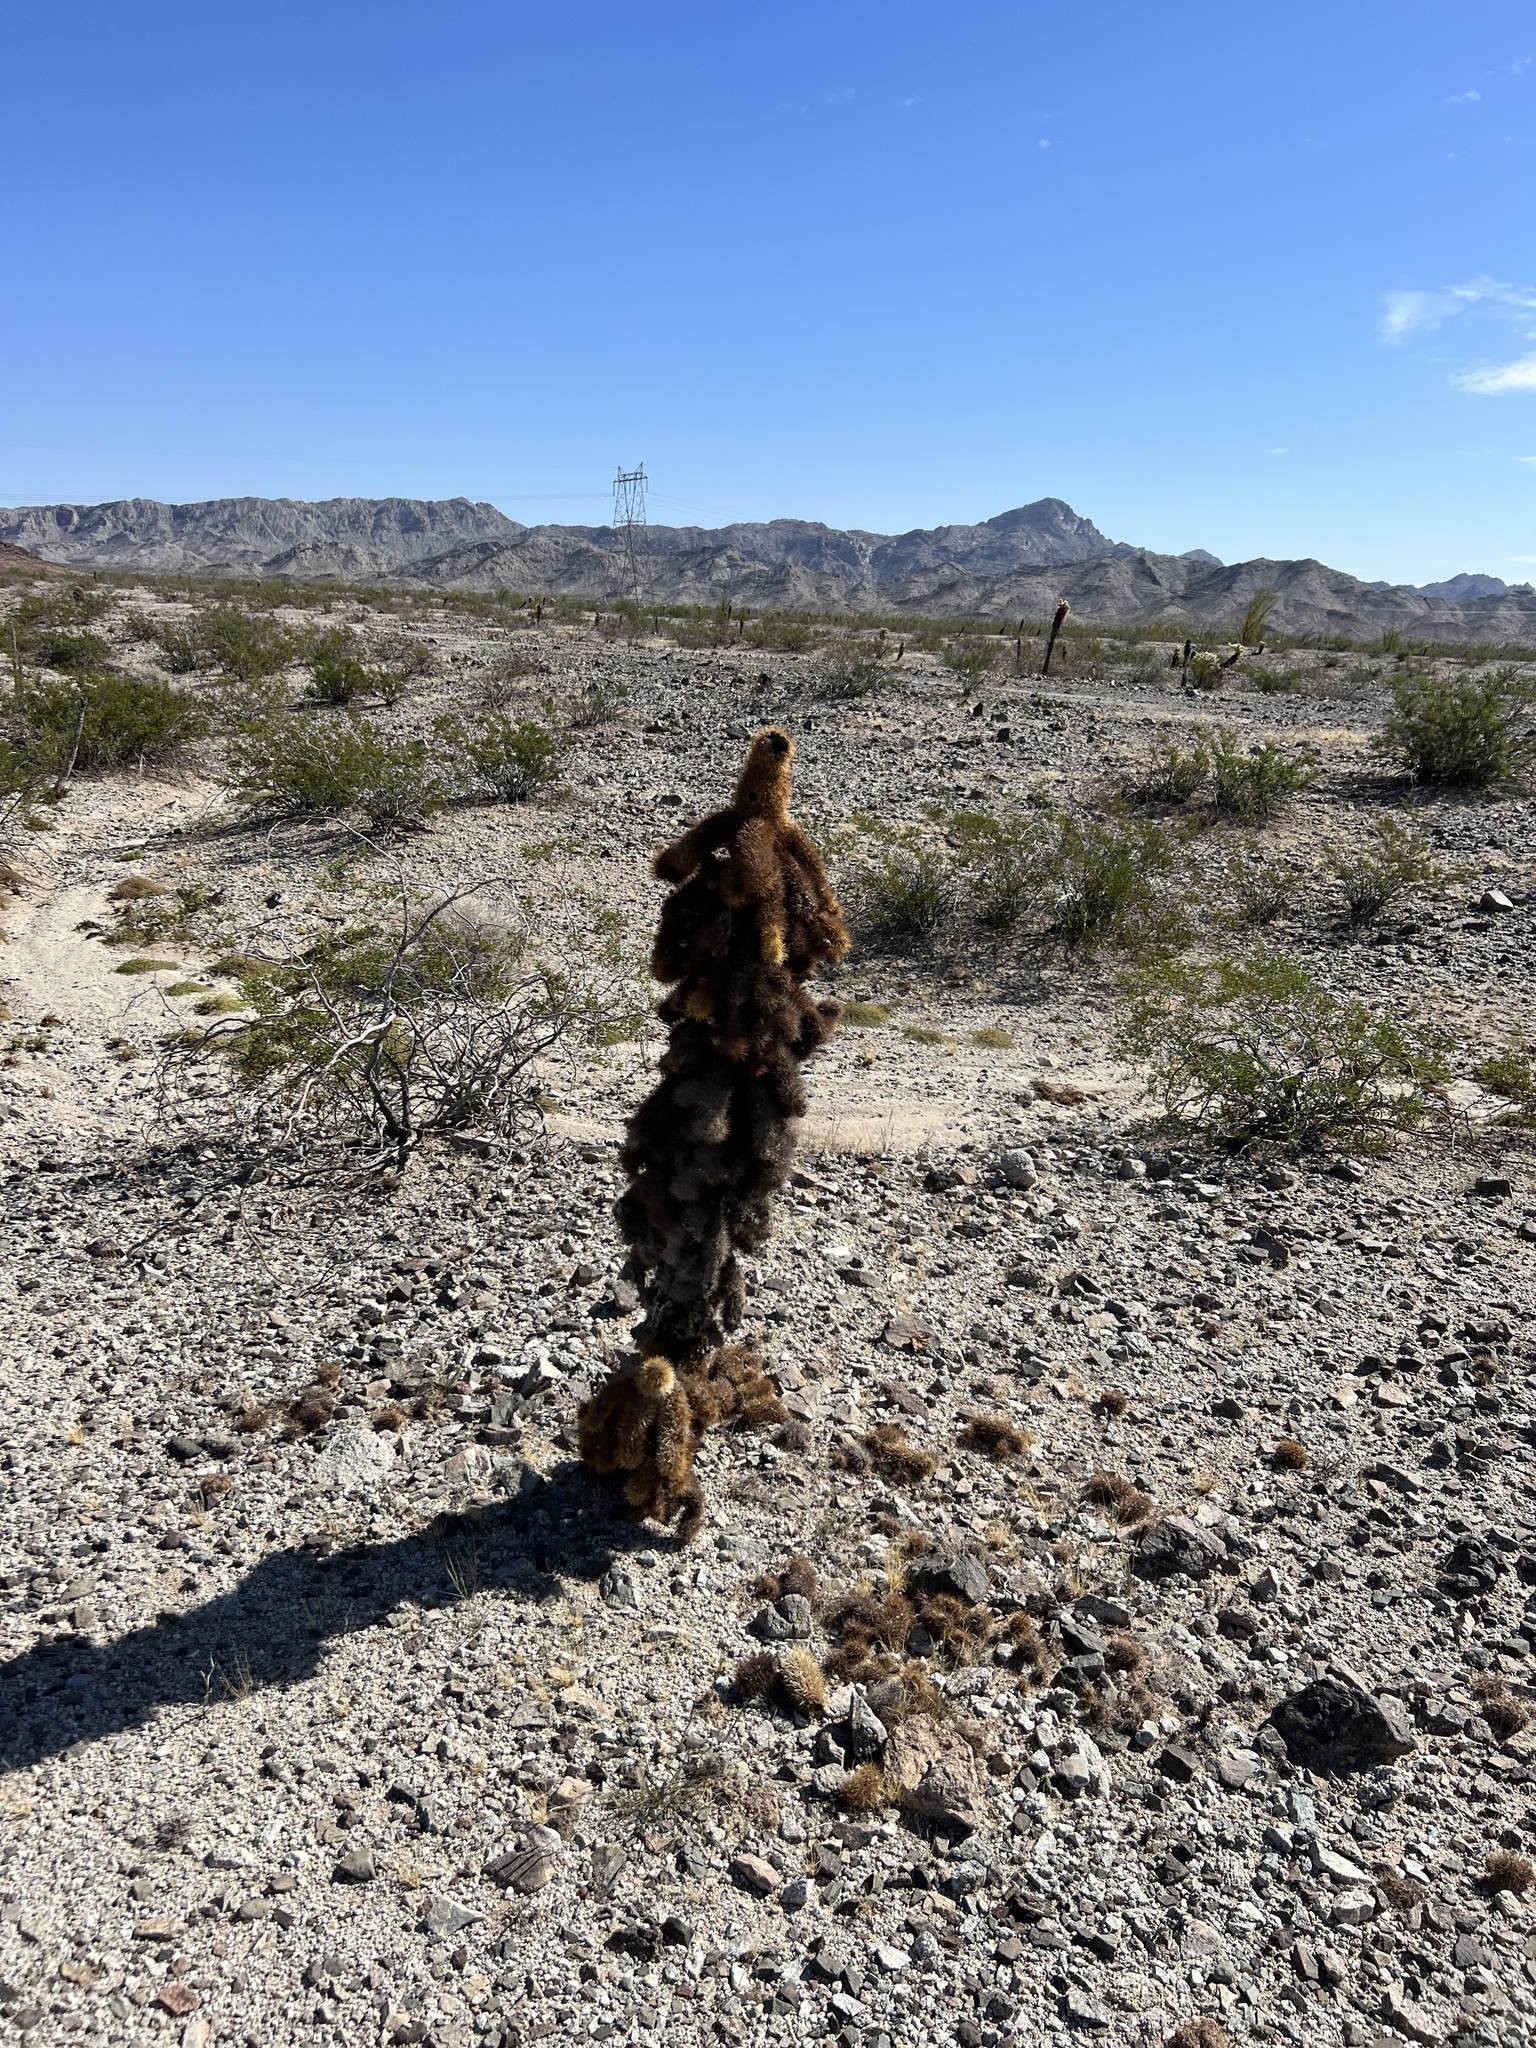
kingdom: Plantae
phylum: Tracheophyta
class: Magnoliopsida
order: Caryophyllales
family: Cactaceae
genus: Cylindropuntia
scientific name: Cylindropuntia fosbergii
